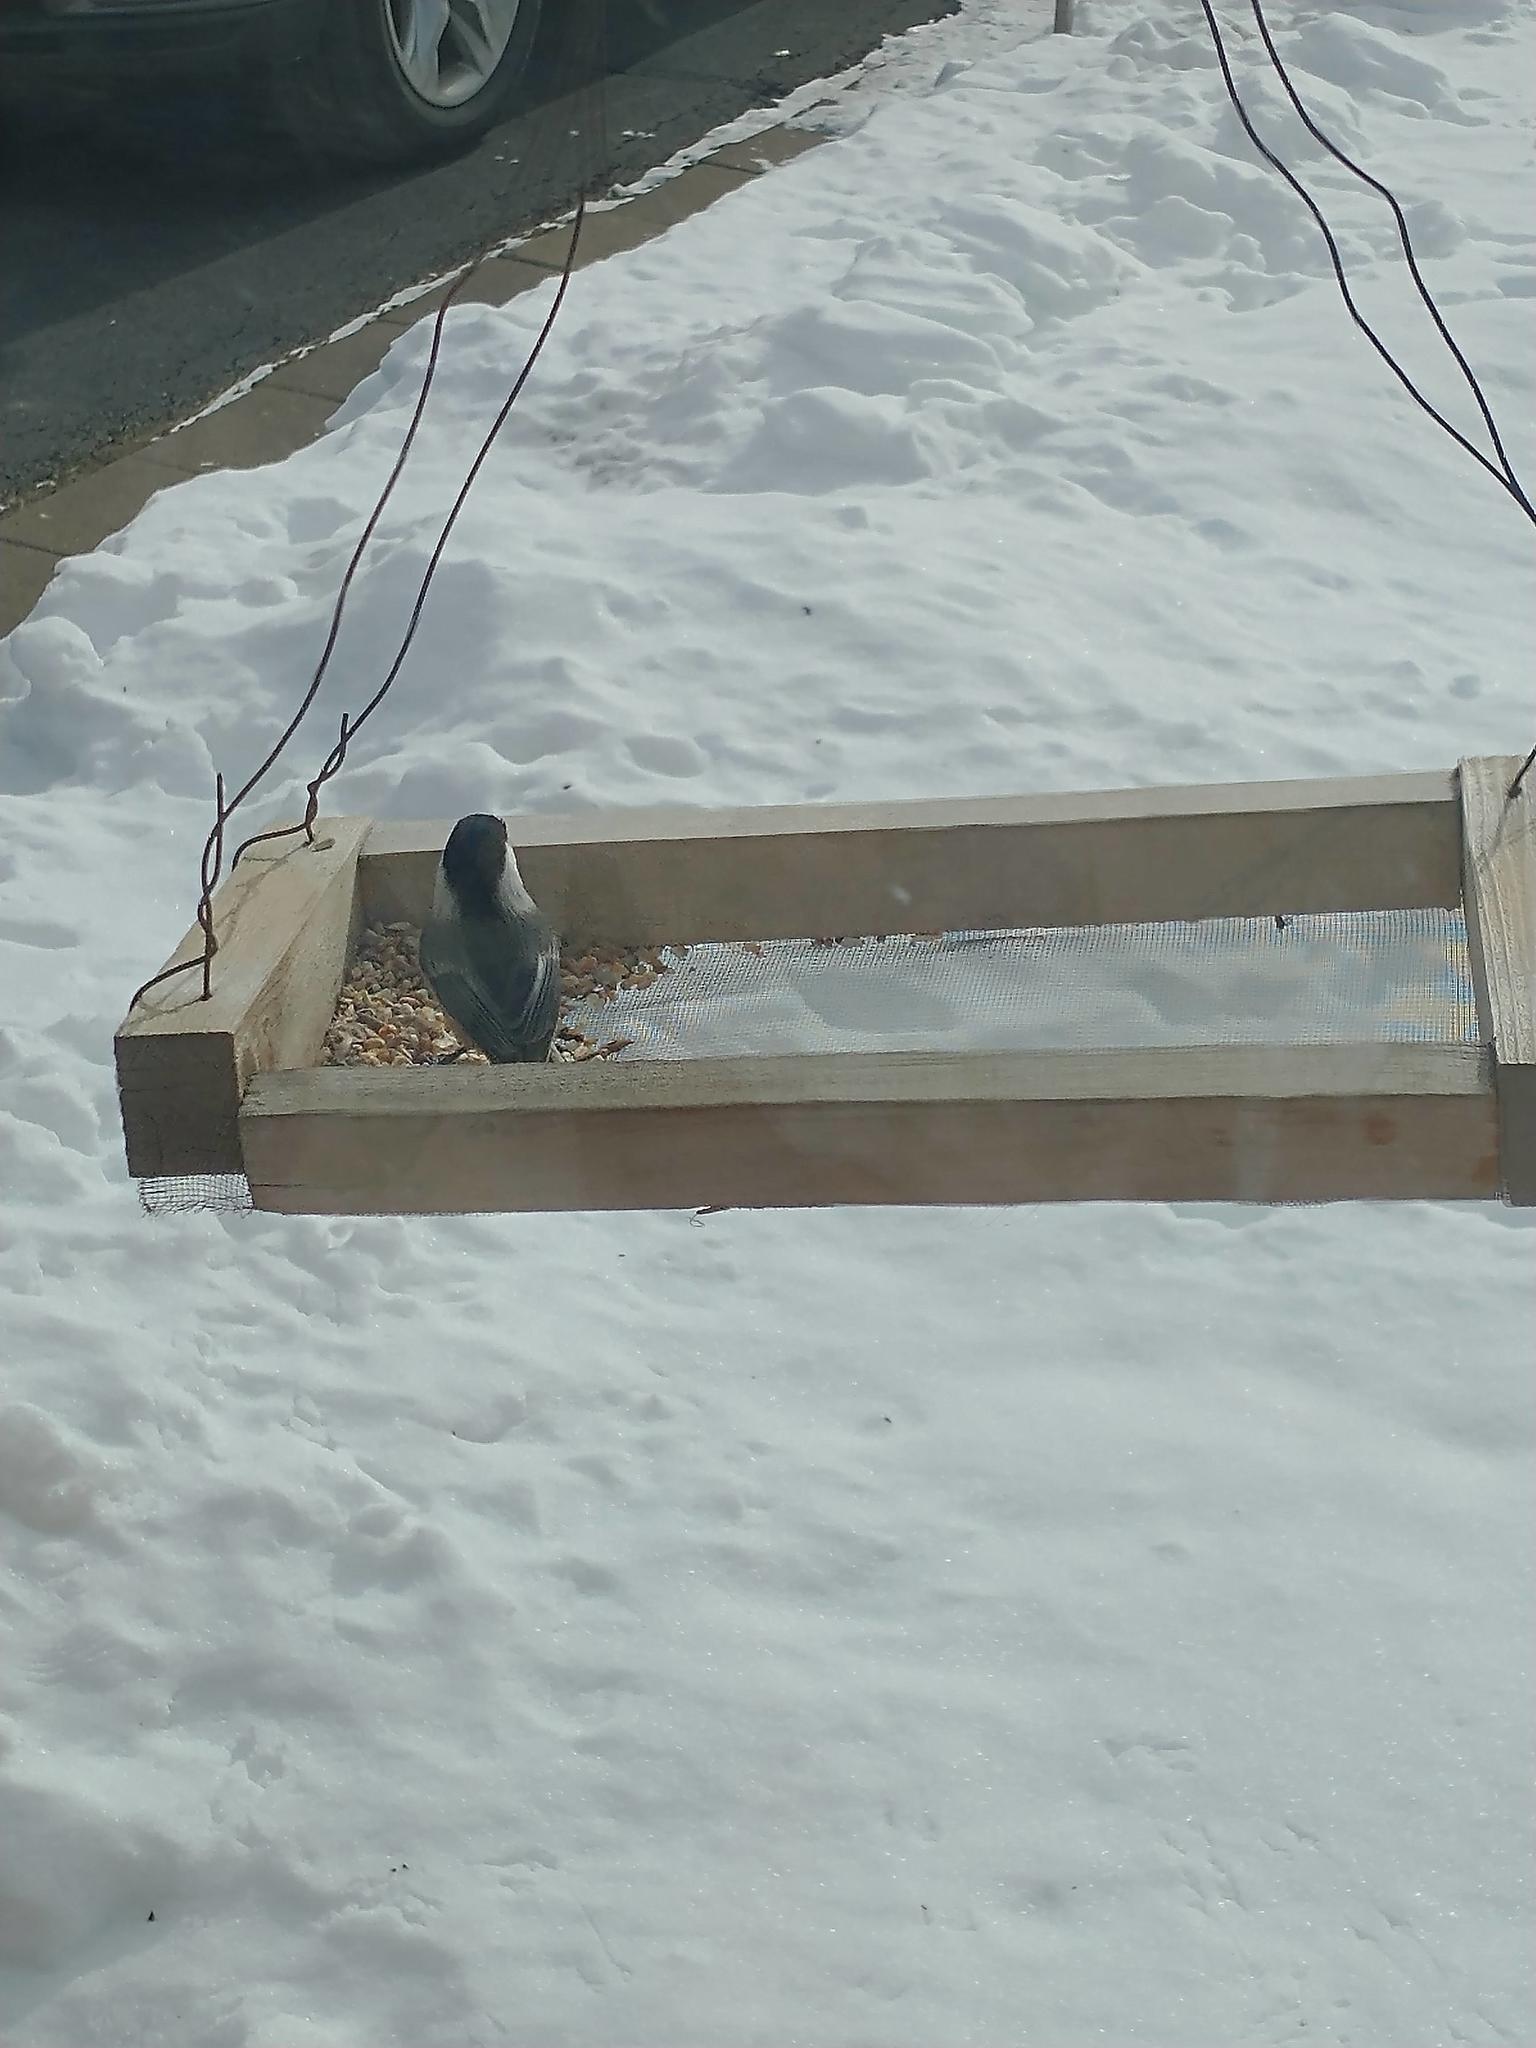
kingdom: Animalia
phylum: Chordata
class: Aves
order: Passeriformes
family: Paridae
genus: Poecile
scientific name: Poecile atricapillus
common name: Black-capped chickadee
